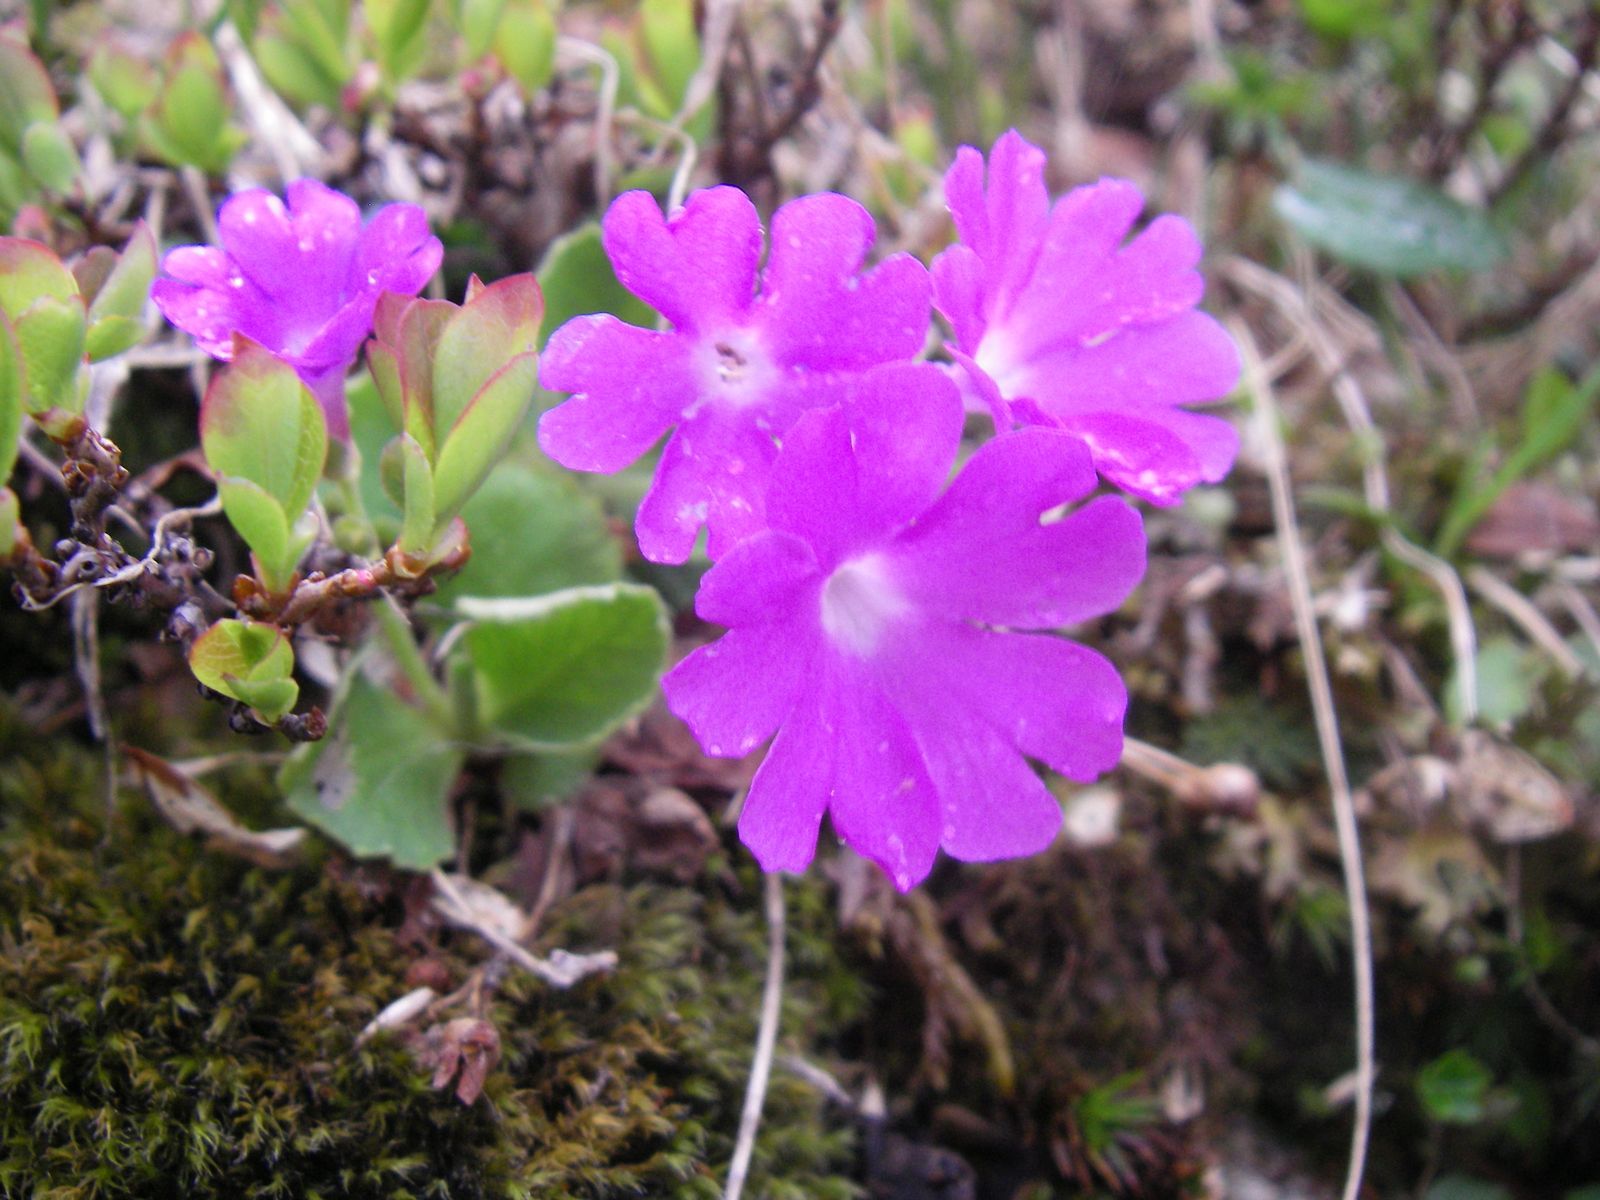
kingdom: Plantae
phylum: Tracheophyta
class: Magnoliopsida
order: Ericales
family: Primulaceae
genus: Primula
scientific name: Primula hirsuta
